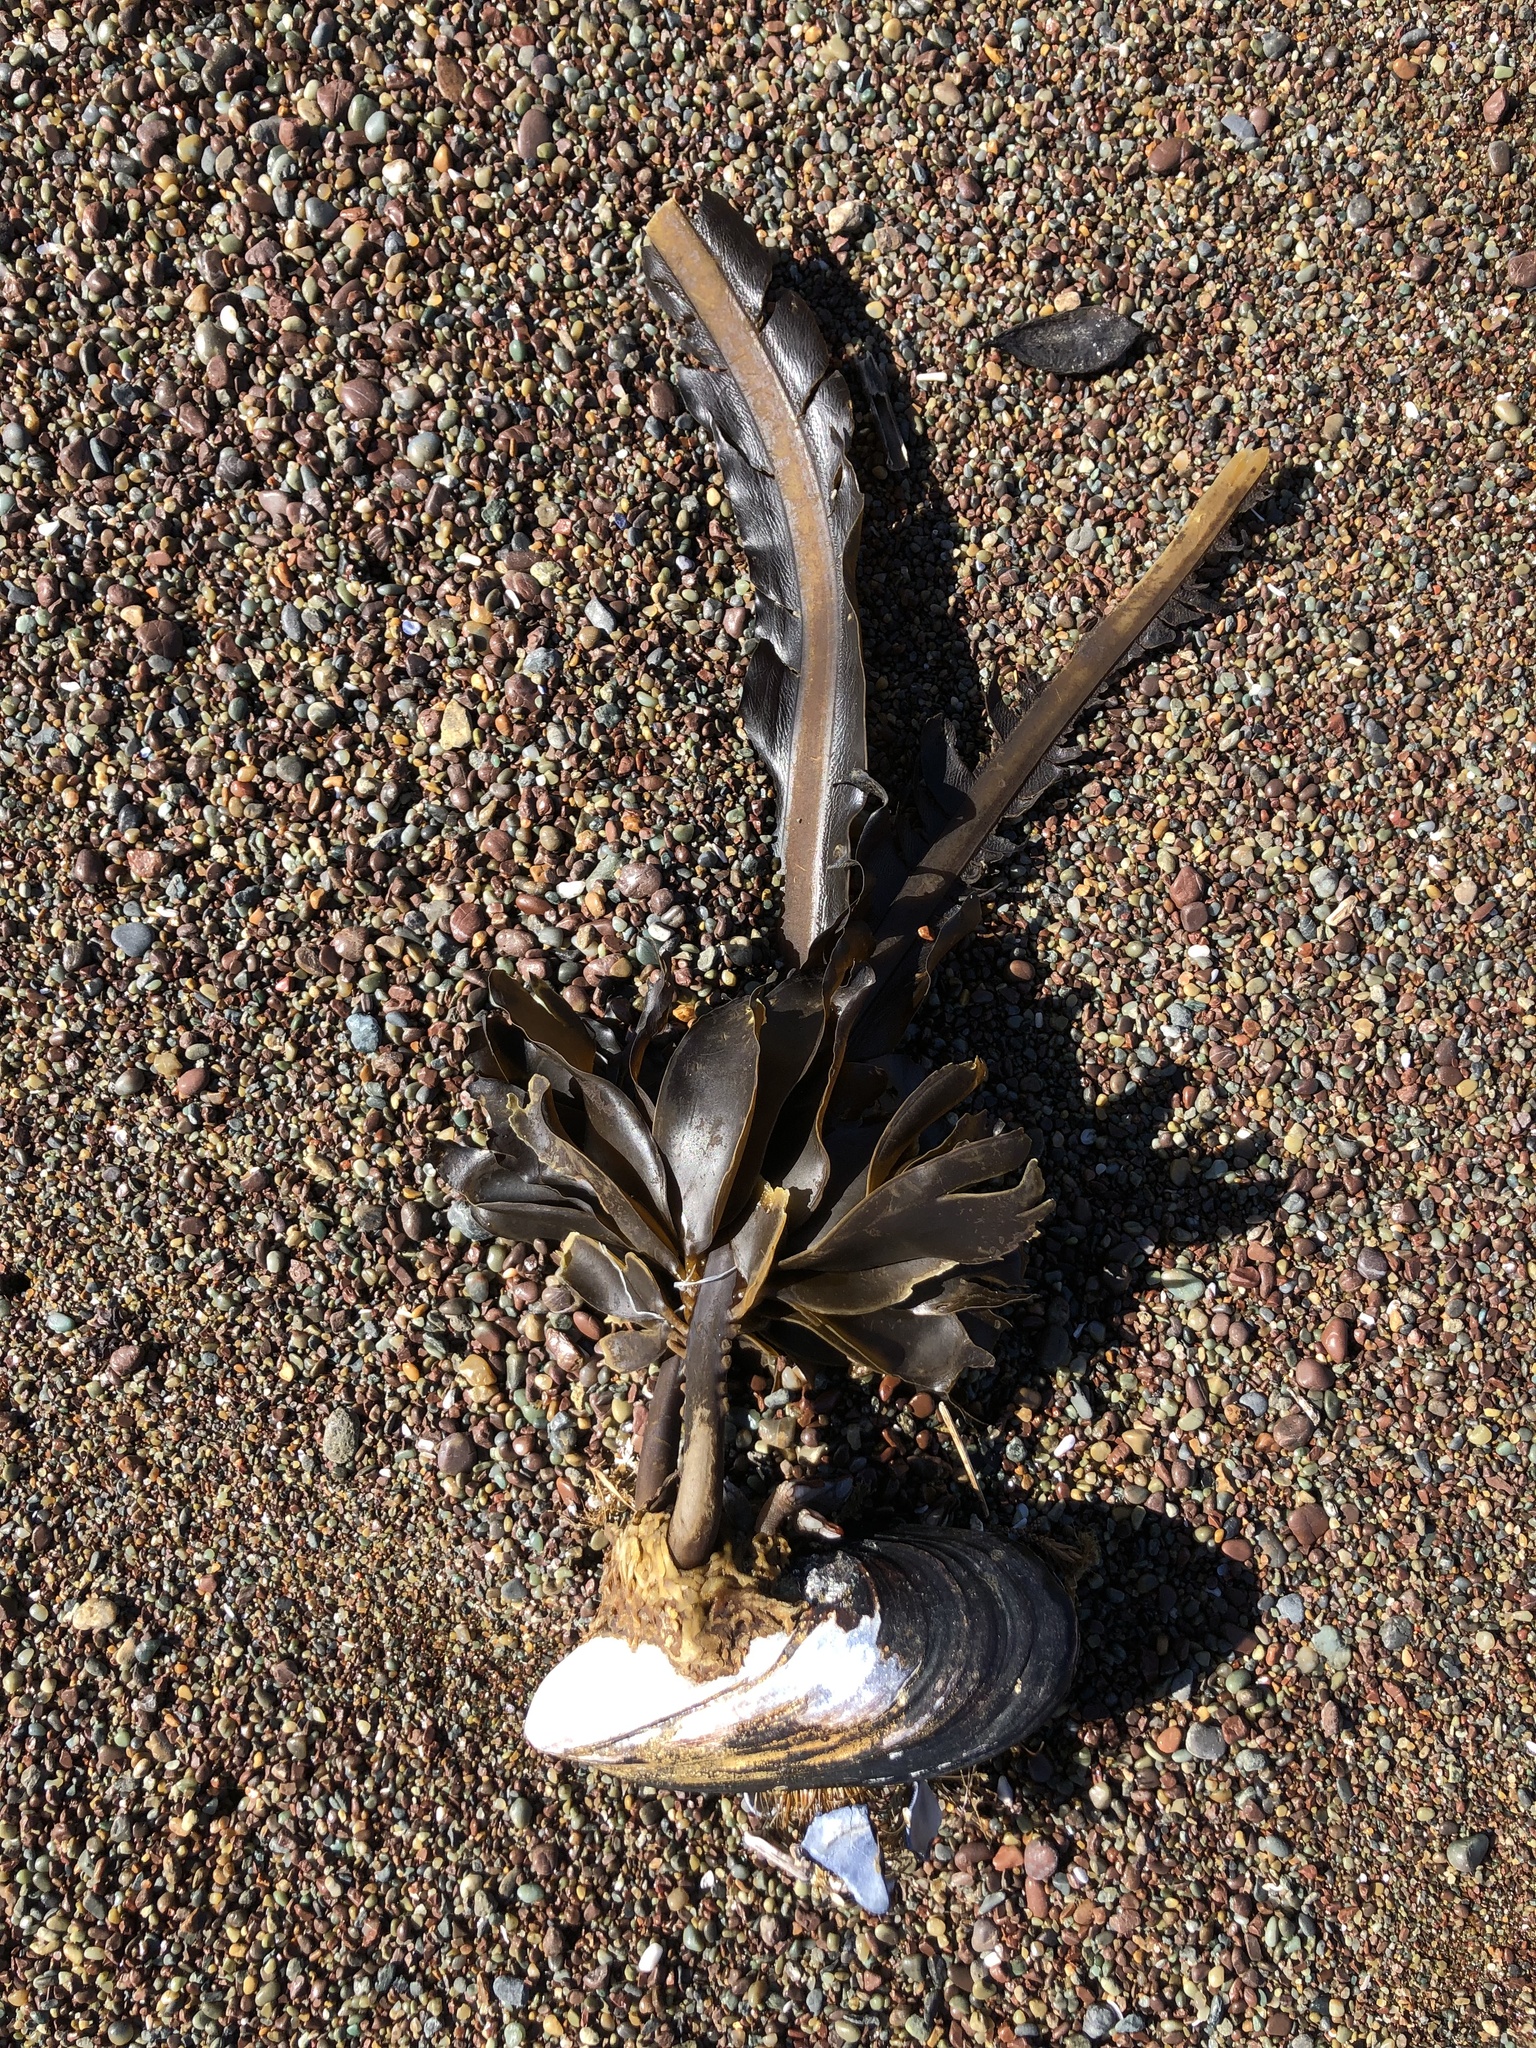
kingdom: Chromista
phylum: Ochrophyta
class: Phaeophyceae
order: Laminariales
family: Alariaceae
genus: Alaria
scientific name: Alaria marginata
